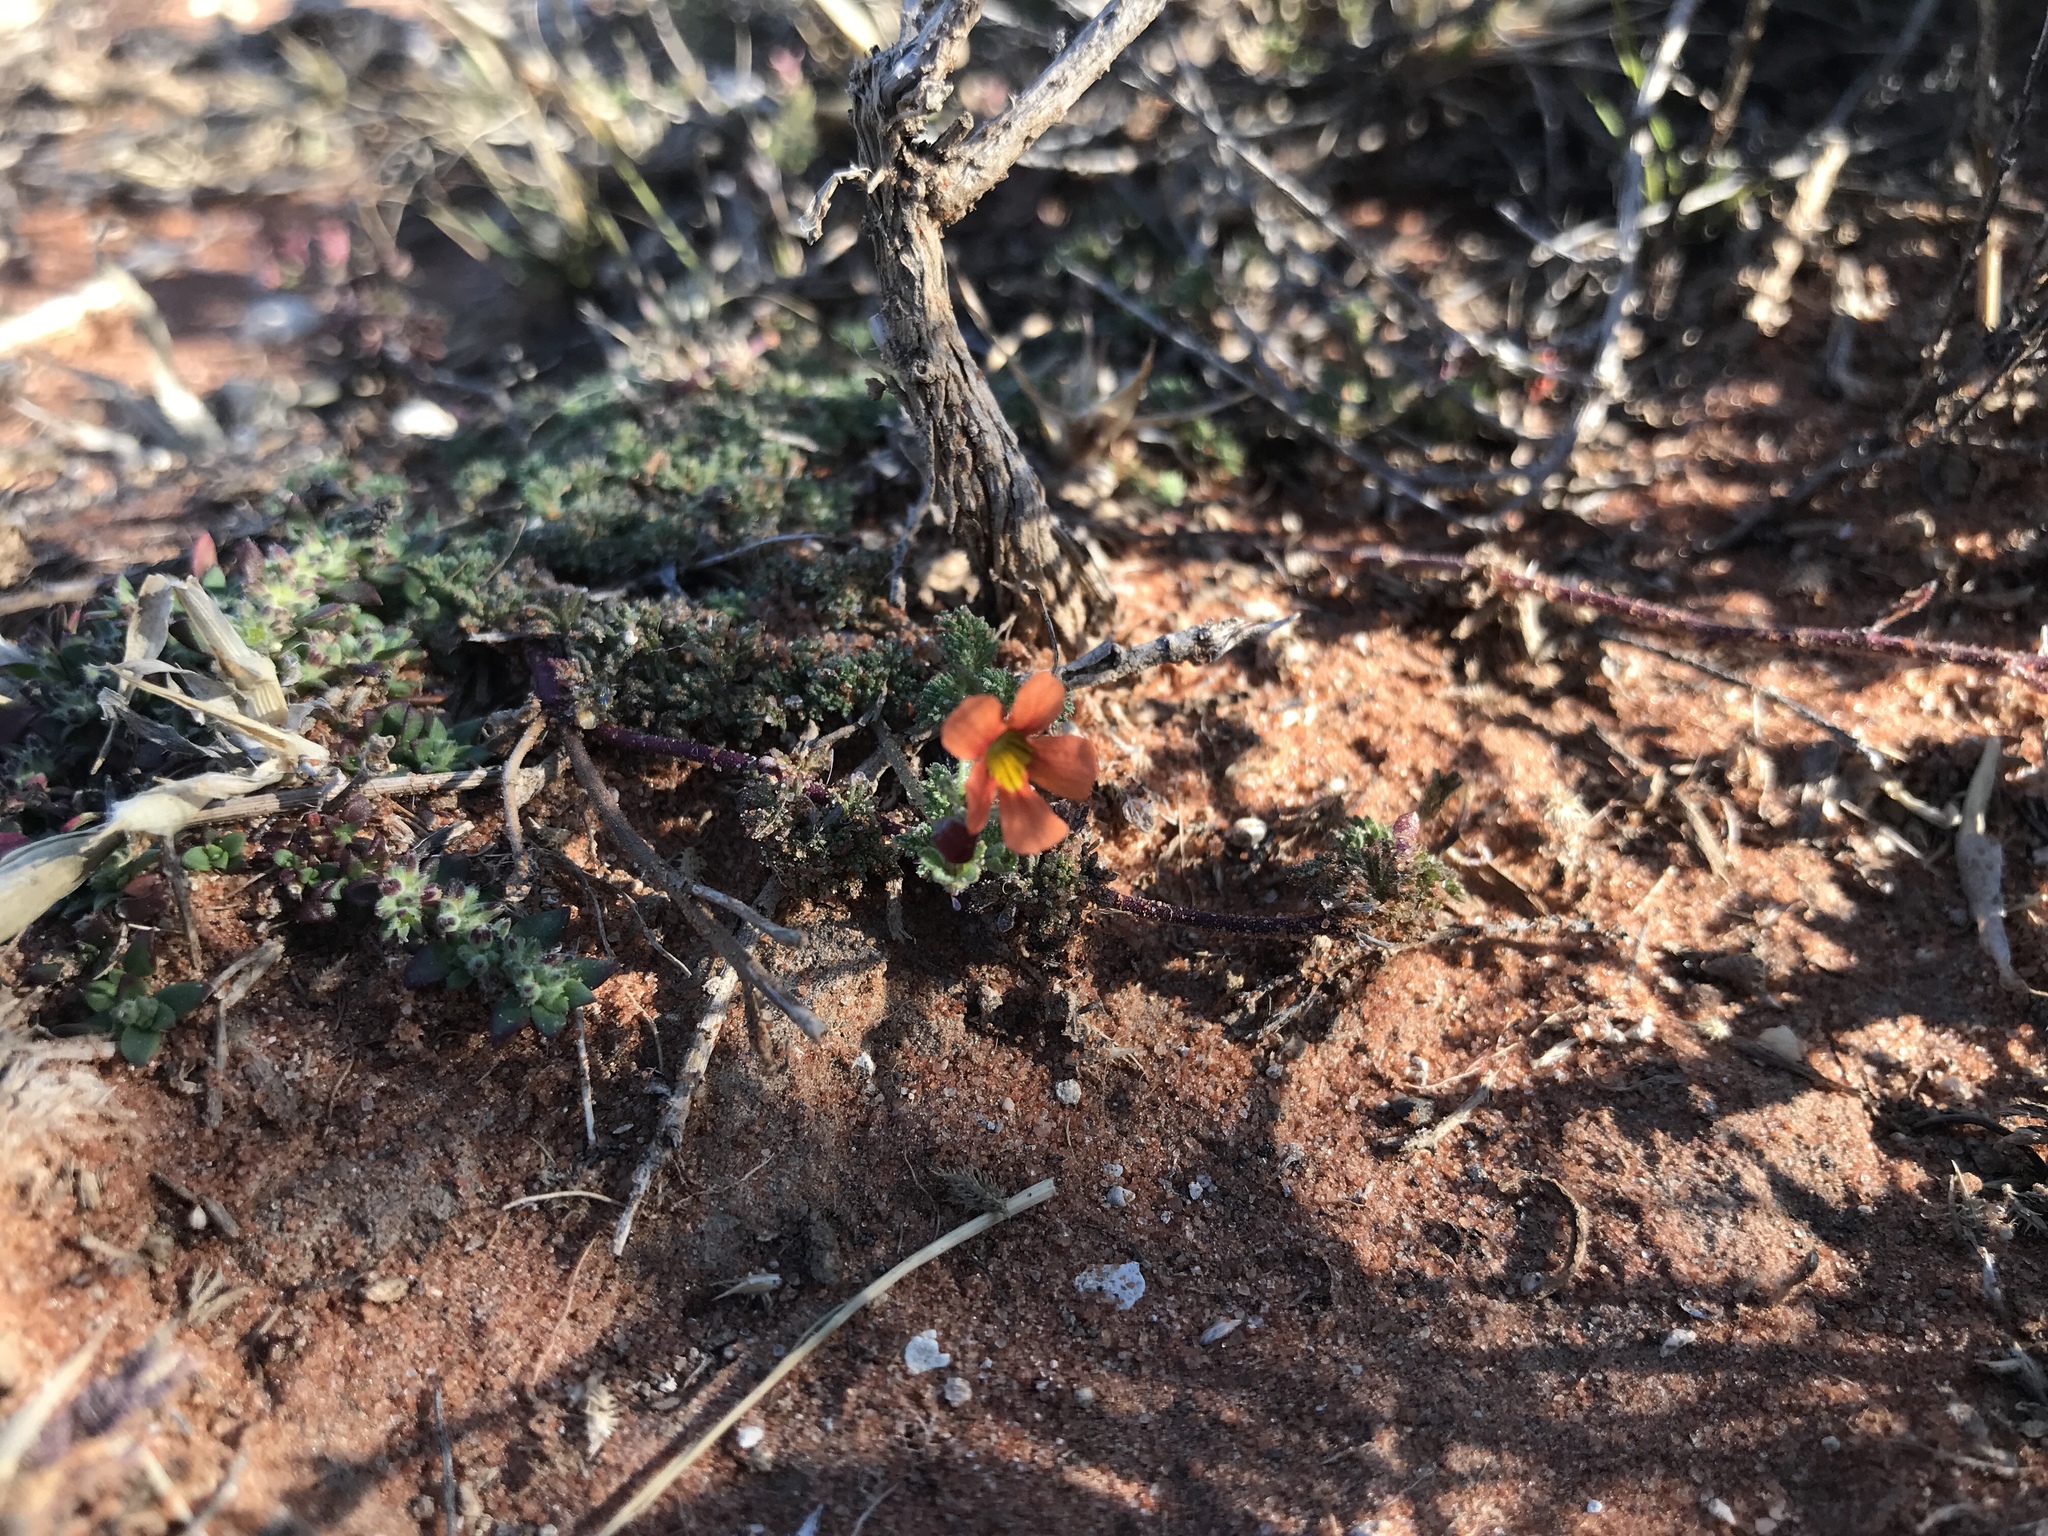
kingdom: Plantae
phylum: Tracheophyta
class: Magnoliopsida
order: Lamiales
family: Scrophulariaceae
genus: Jamesbrittenia
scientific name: Jamesbrittenia aurantiaca
